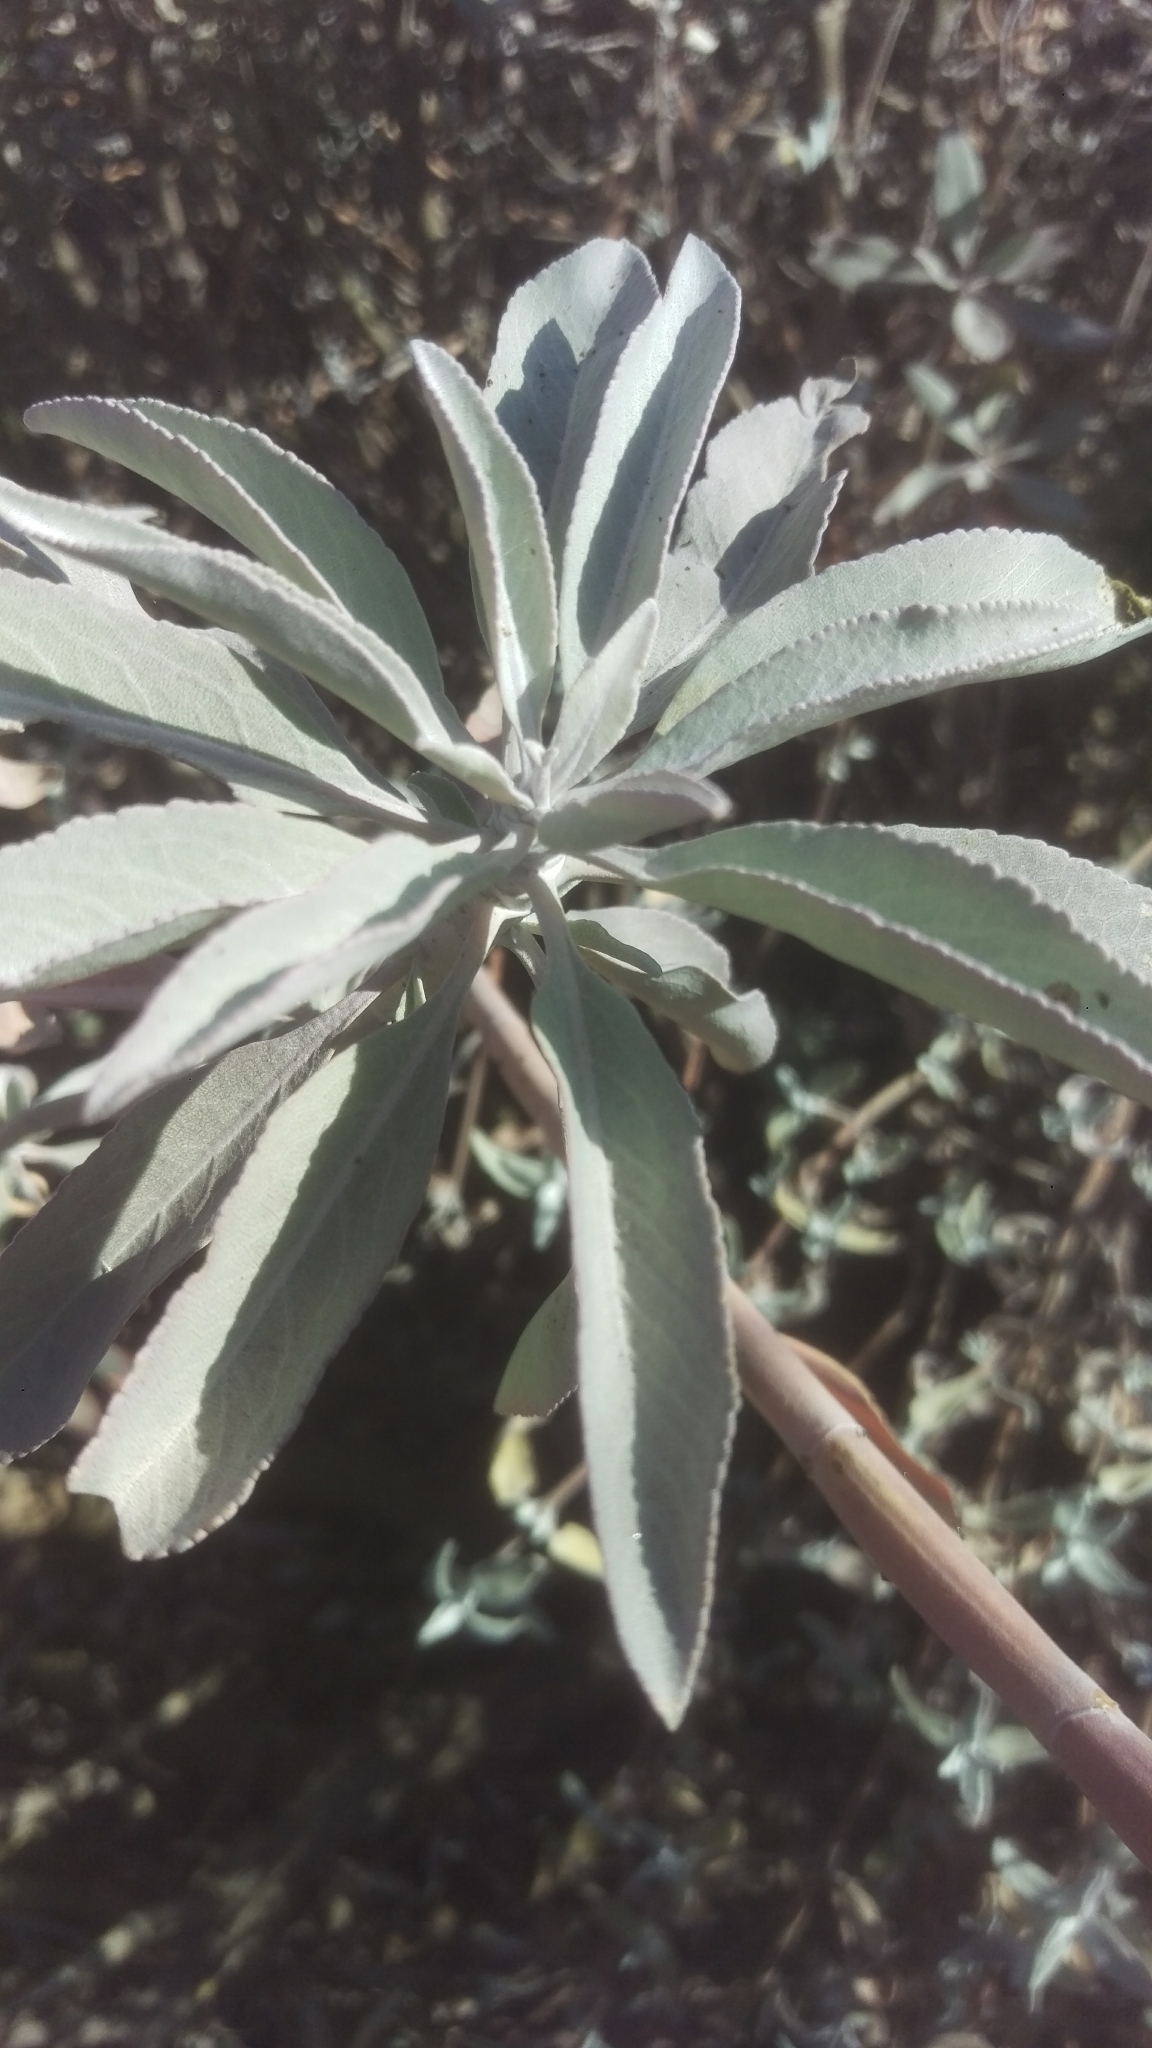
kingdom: Plantae
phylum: Tracheophyta
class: Magnoliopsida
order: Lamiales
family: Lamiaceae
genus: Salvia
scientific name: Salvia apiana
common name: White sage
